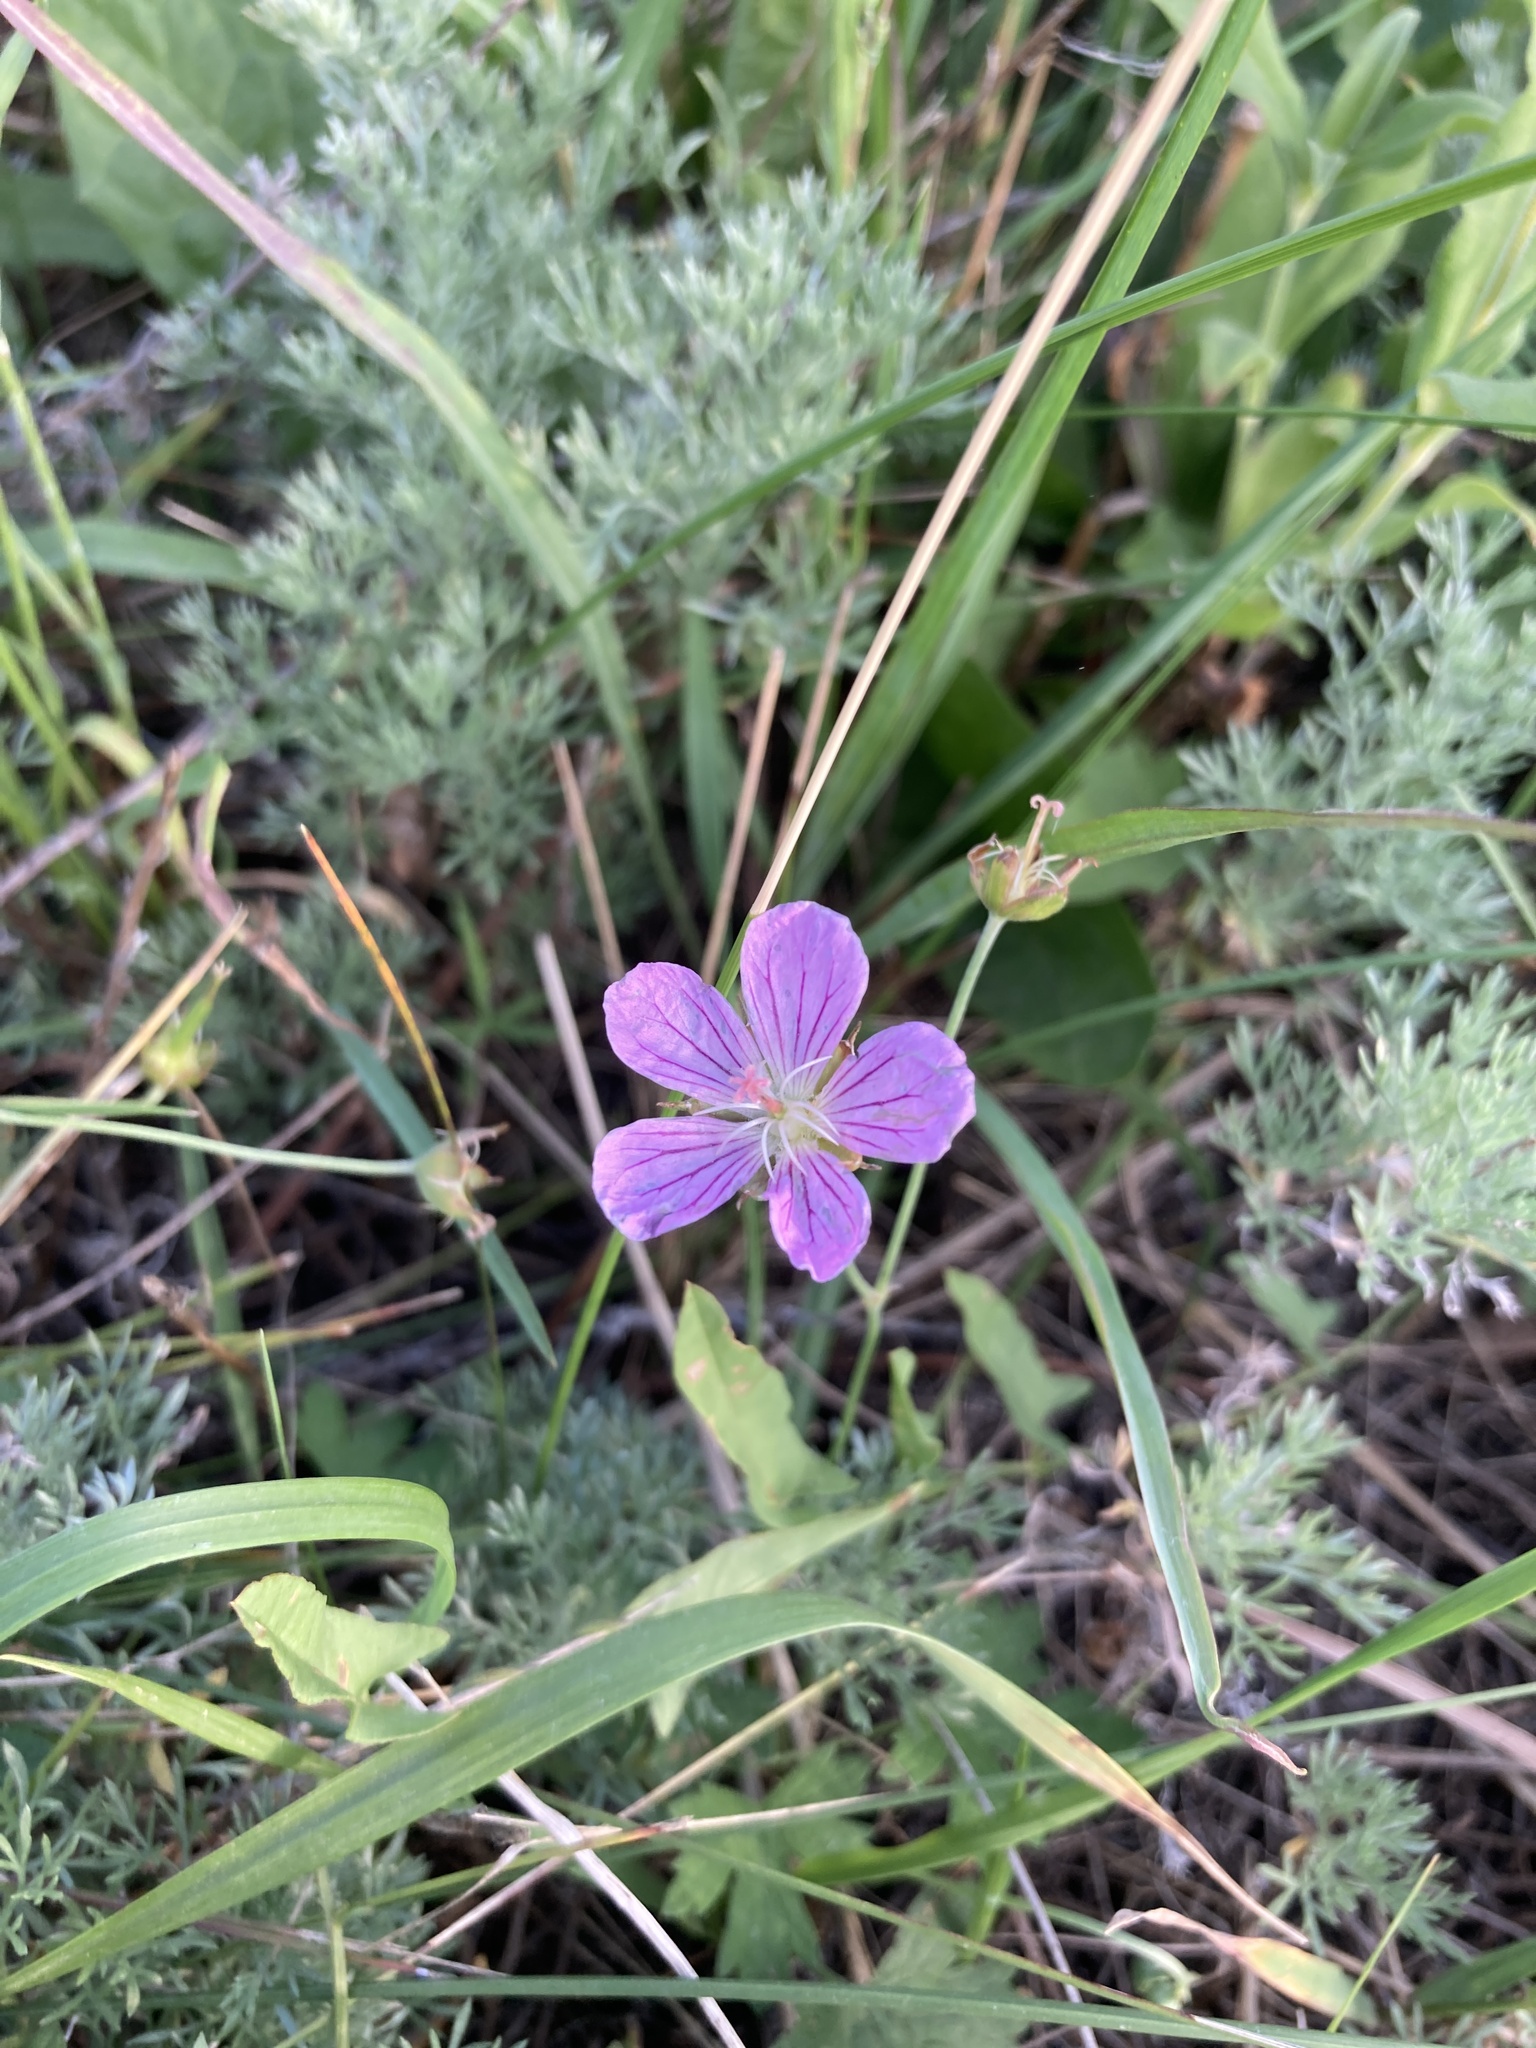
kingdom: Plantae
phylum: Tracheophyta
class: Magnoliopsida
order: Geraniales
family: Geraniaceae
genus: Geranium
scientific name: Geranium collinum
